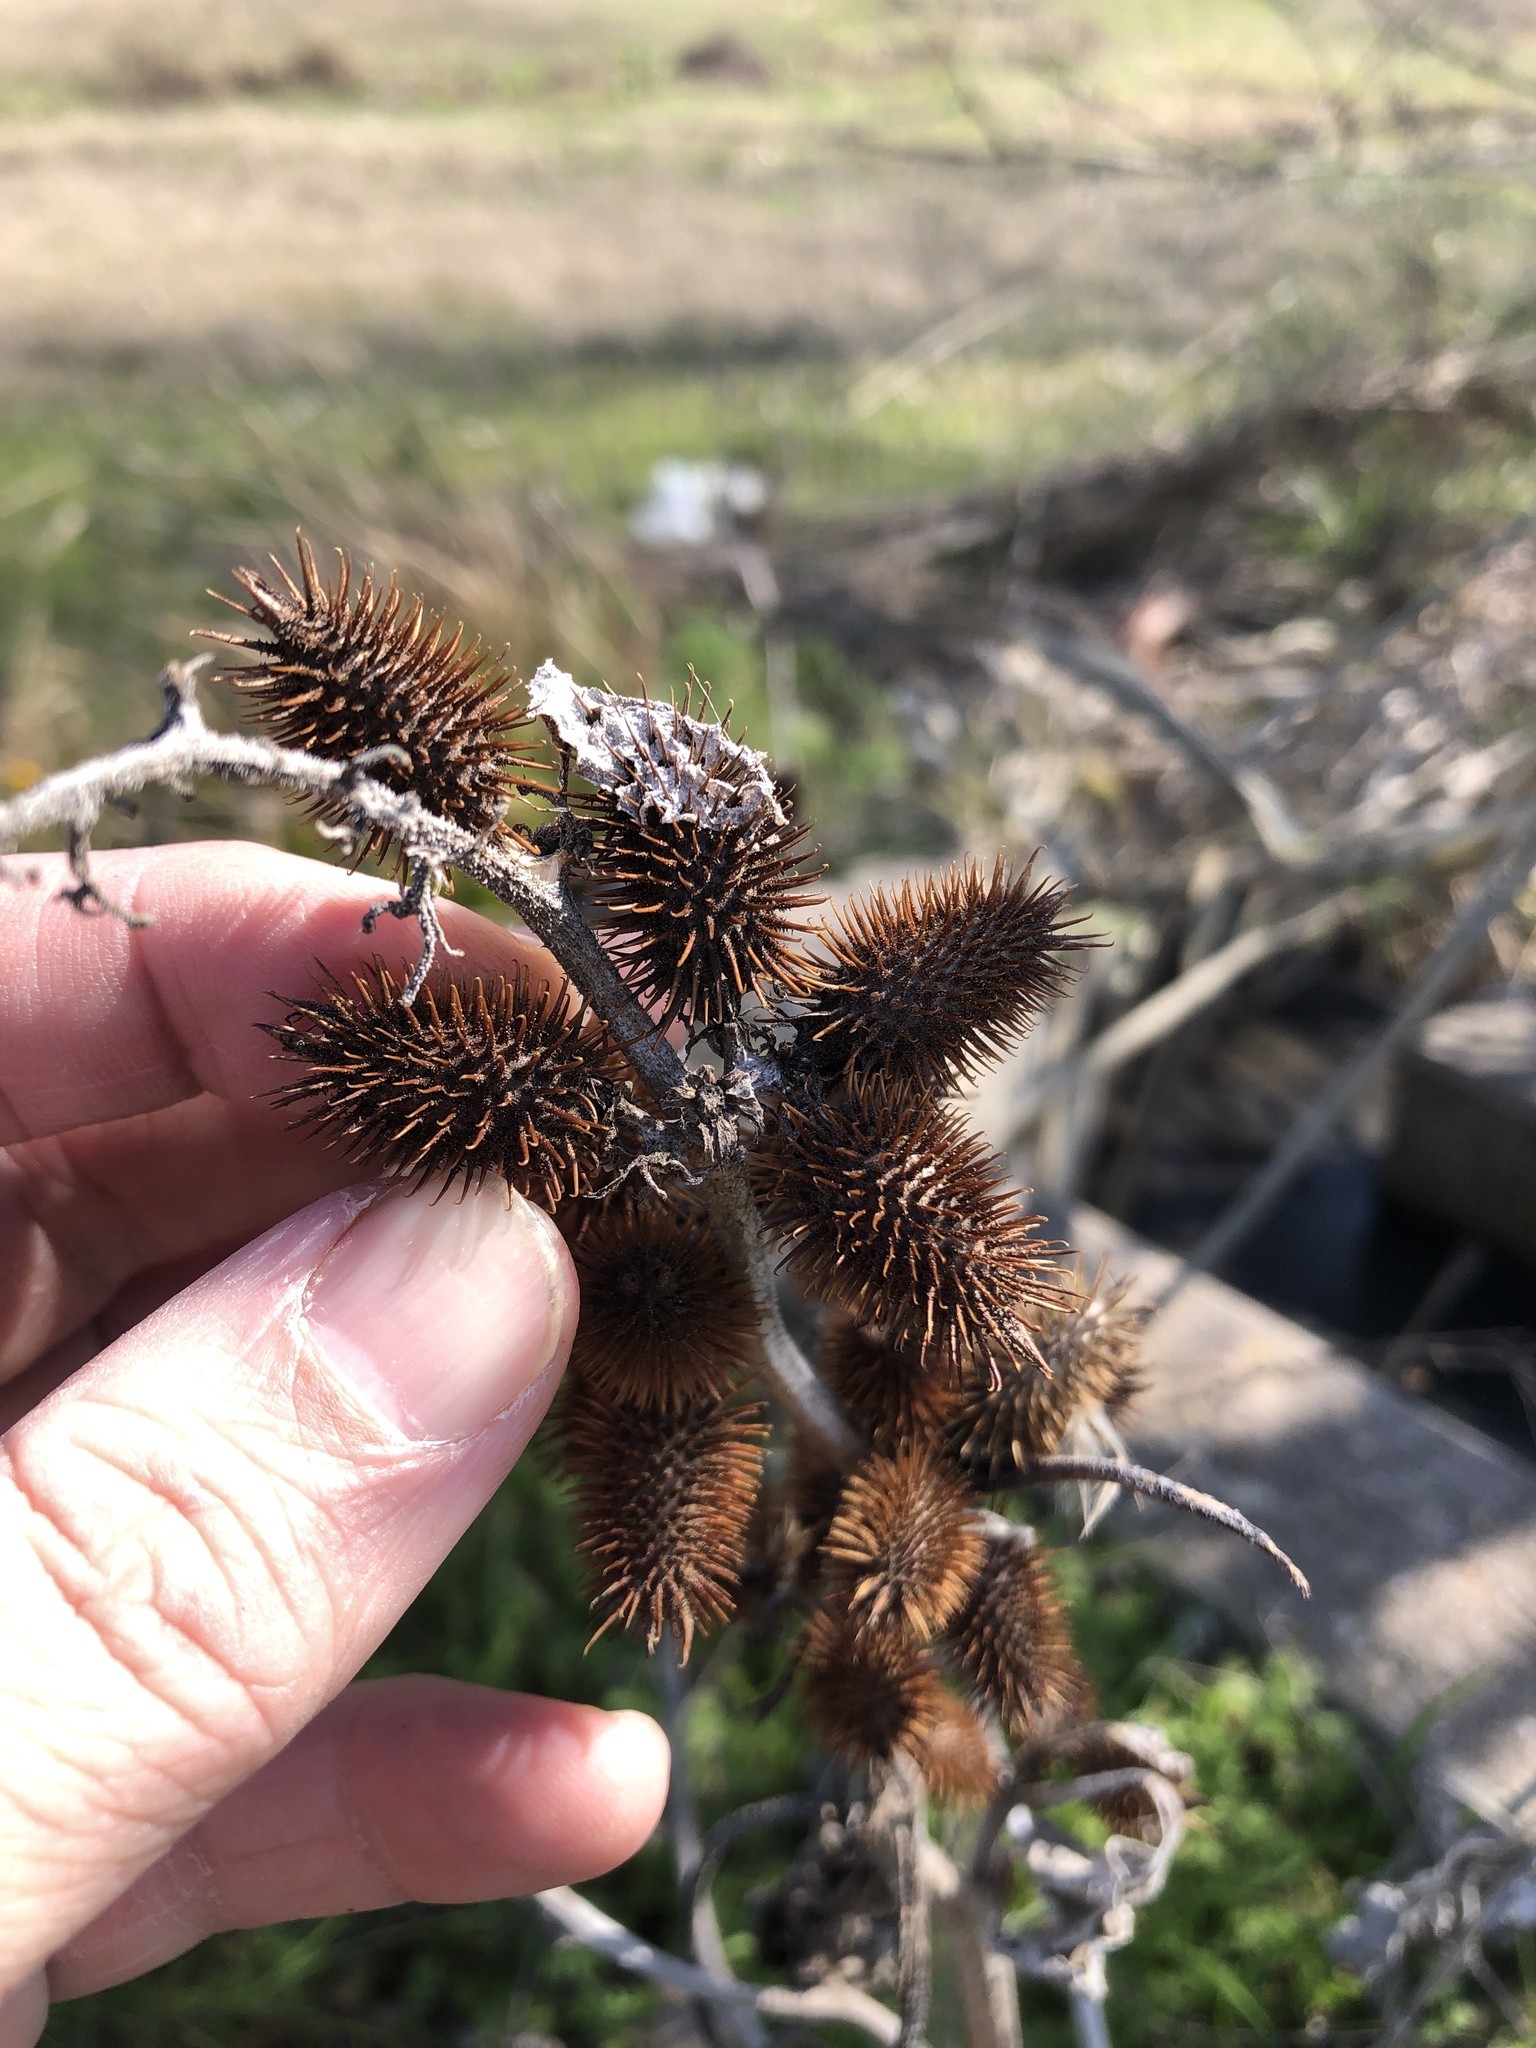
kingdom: Plantae
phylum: Tracheophyta
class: Magnoliopsida
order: Asterales
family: Asteraceae
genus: Xanthium
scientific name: Xanthium strumarium
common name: Rough cocklebur
